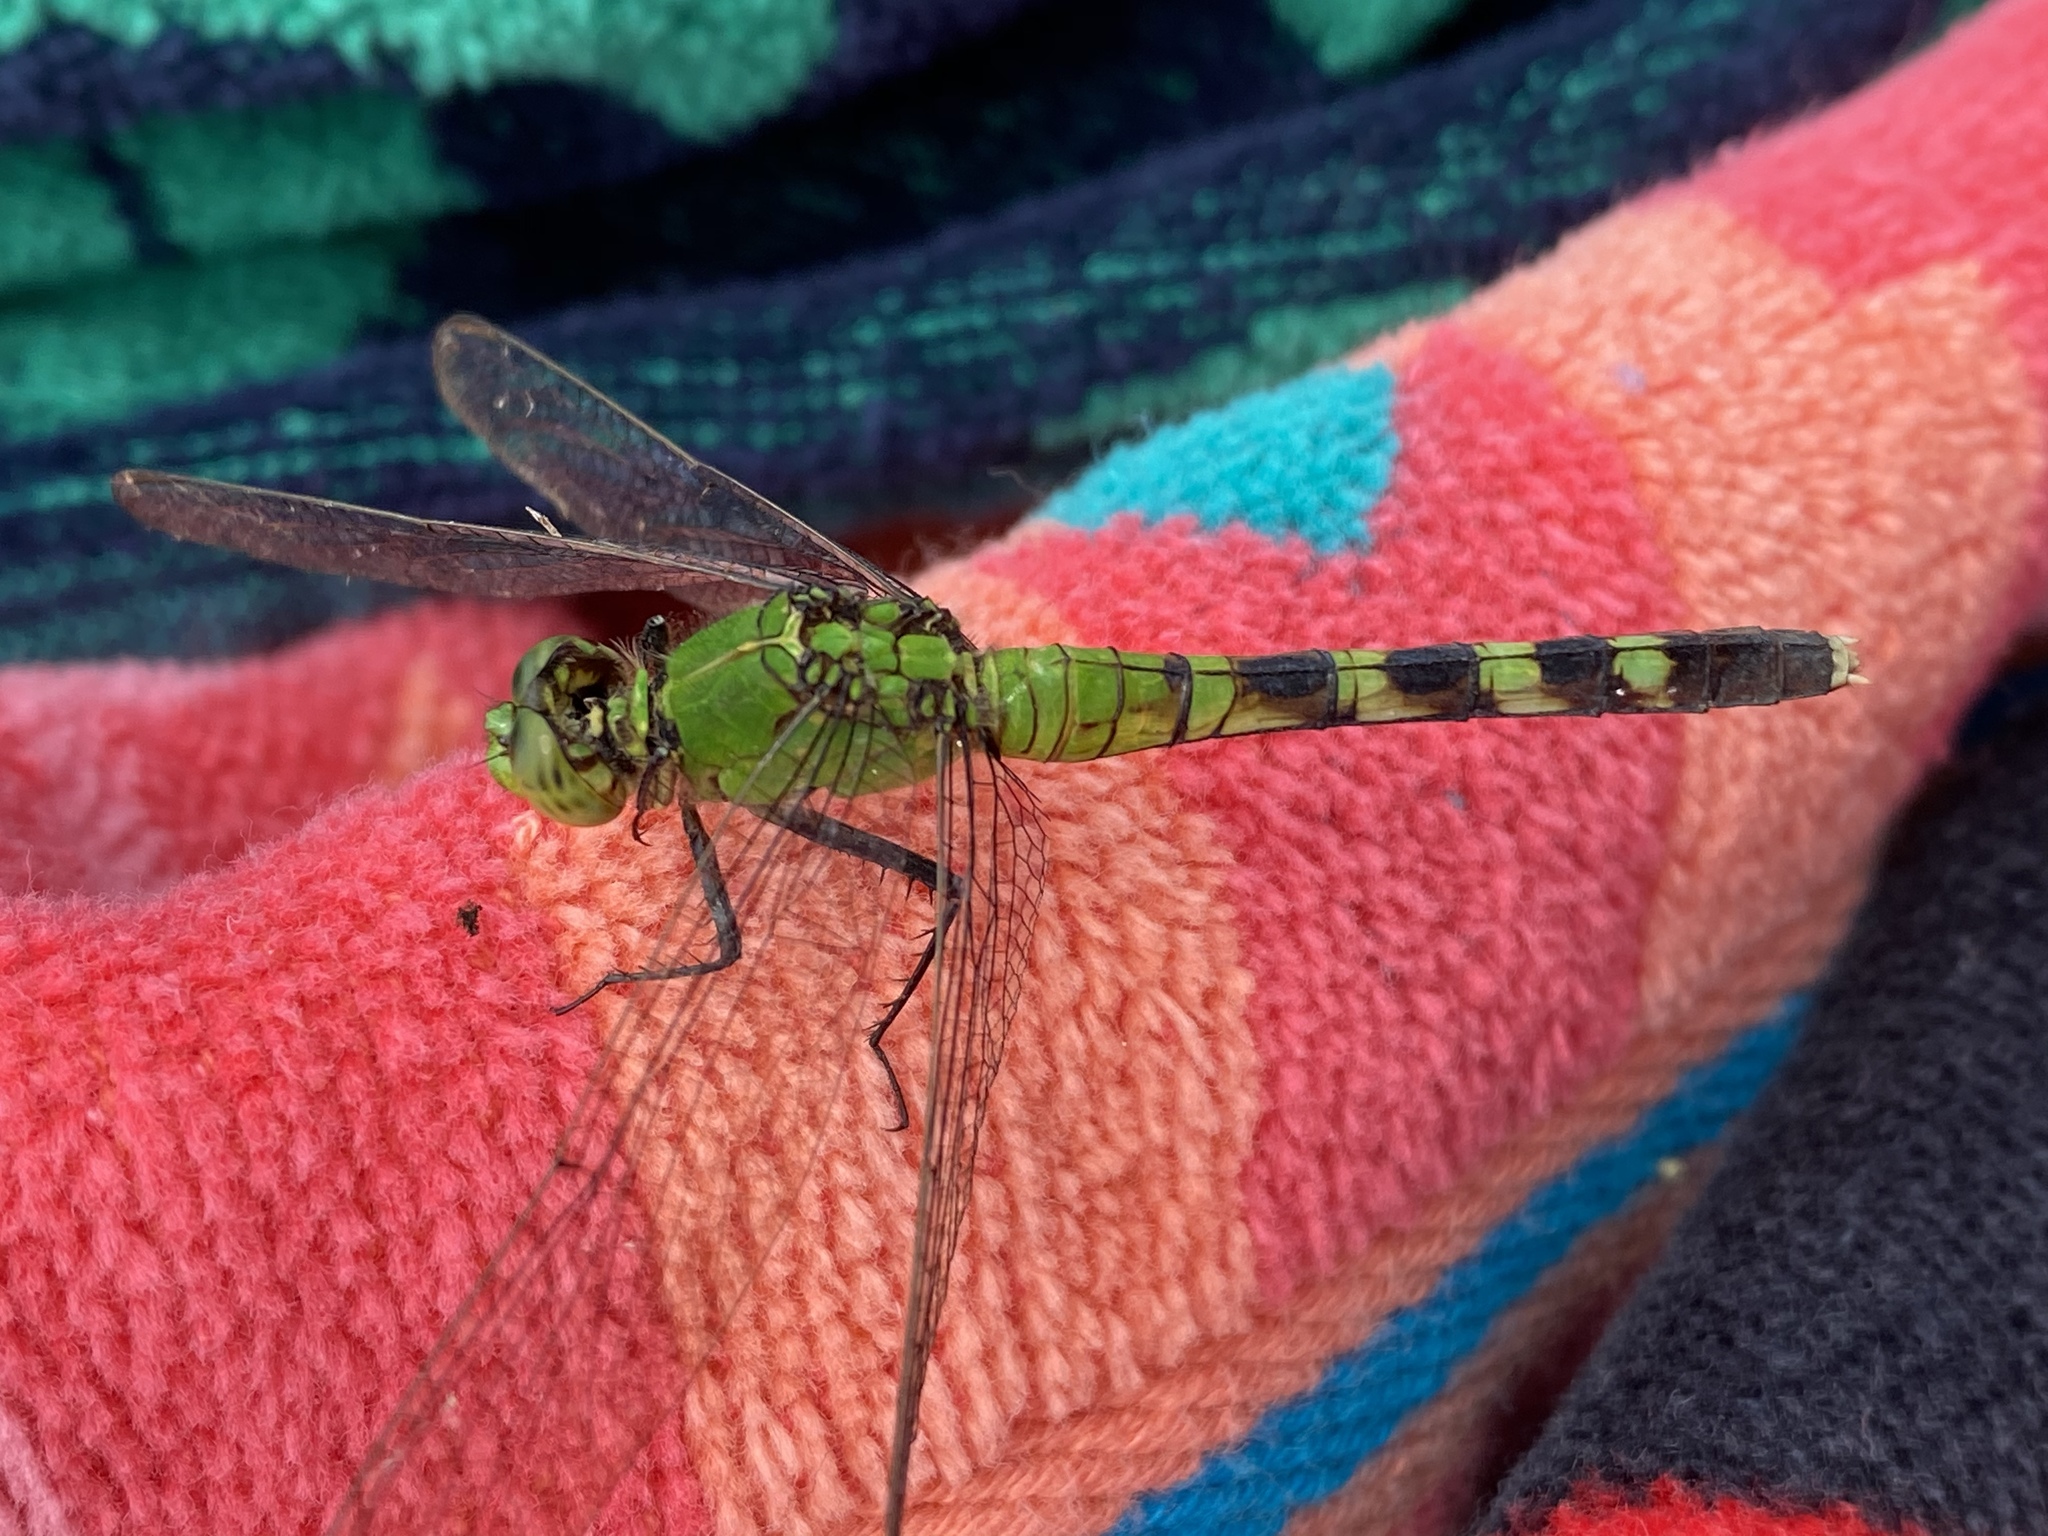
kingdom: Animalia
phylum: Arthropoda
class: Insecta
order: Odonata
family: Libellulidae
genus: Erythemis
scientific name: Erythemis simplicicollis
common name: Eastern pondhawk
